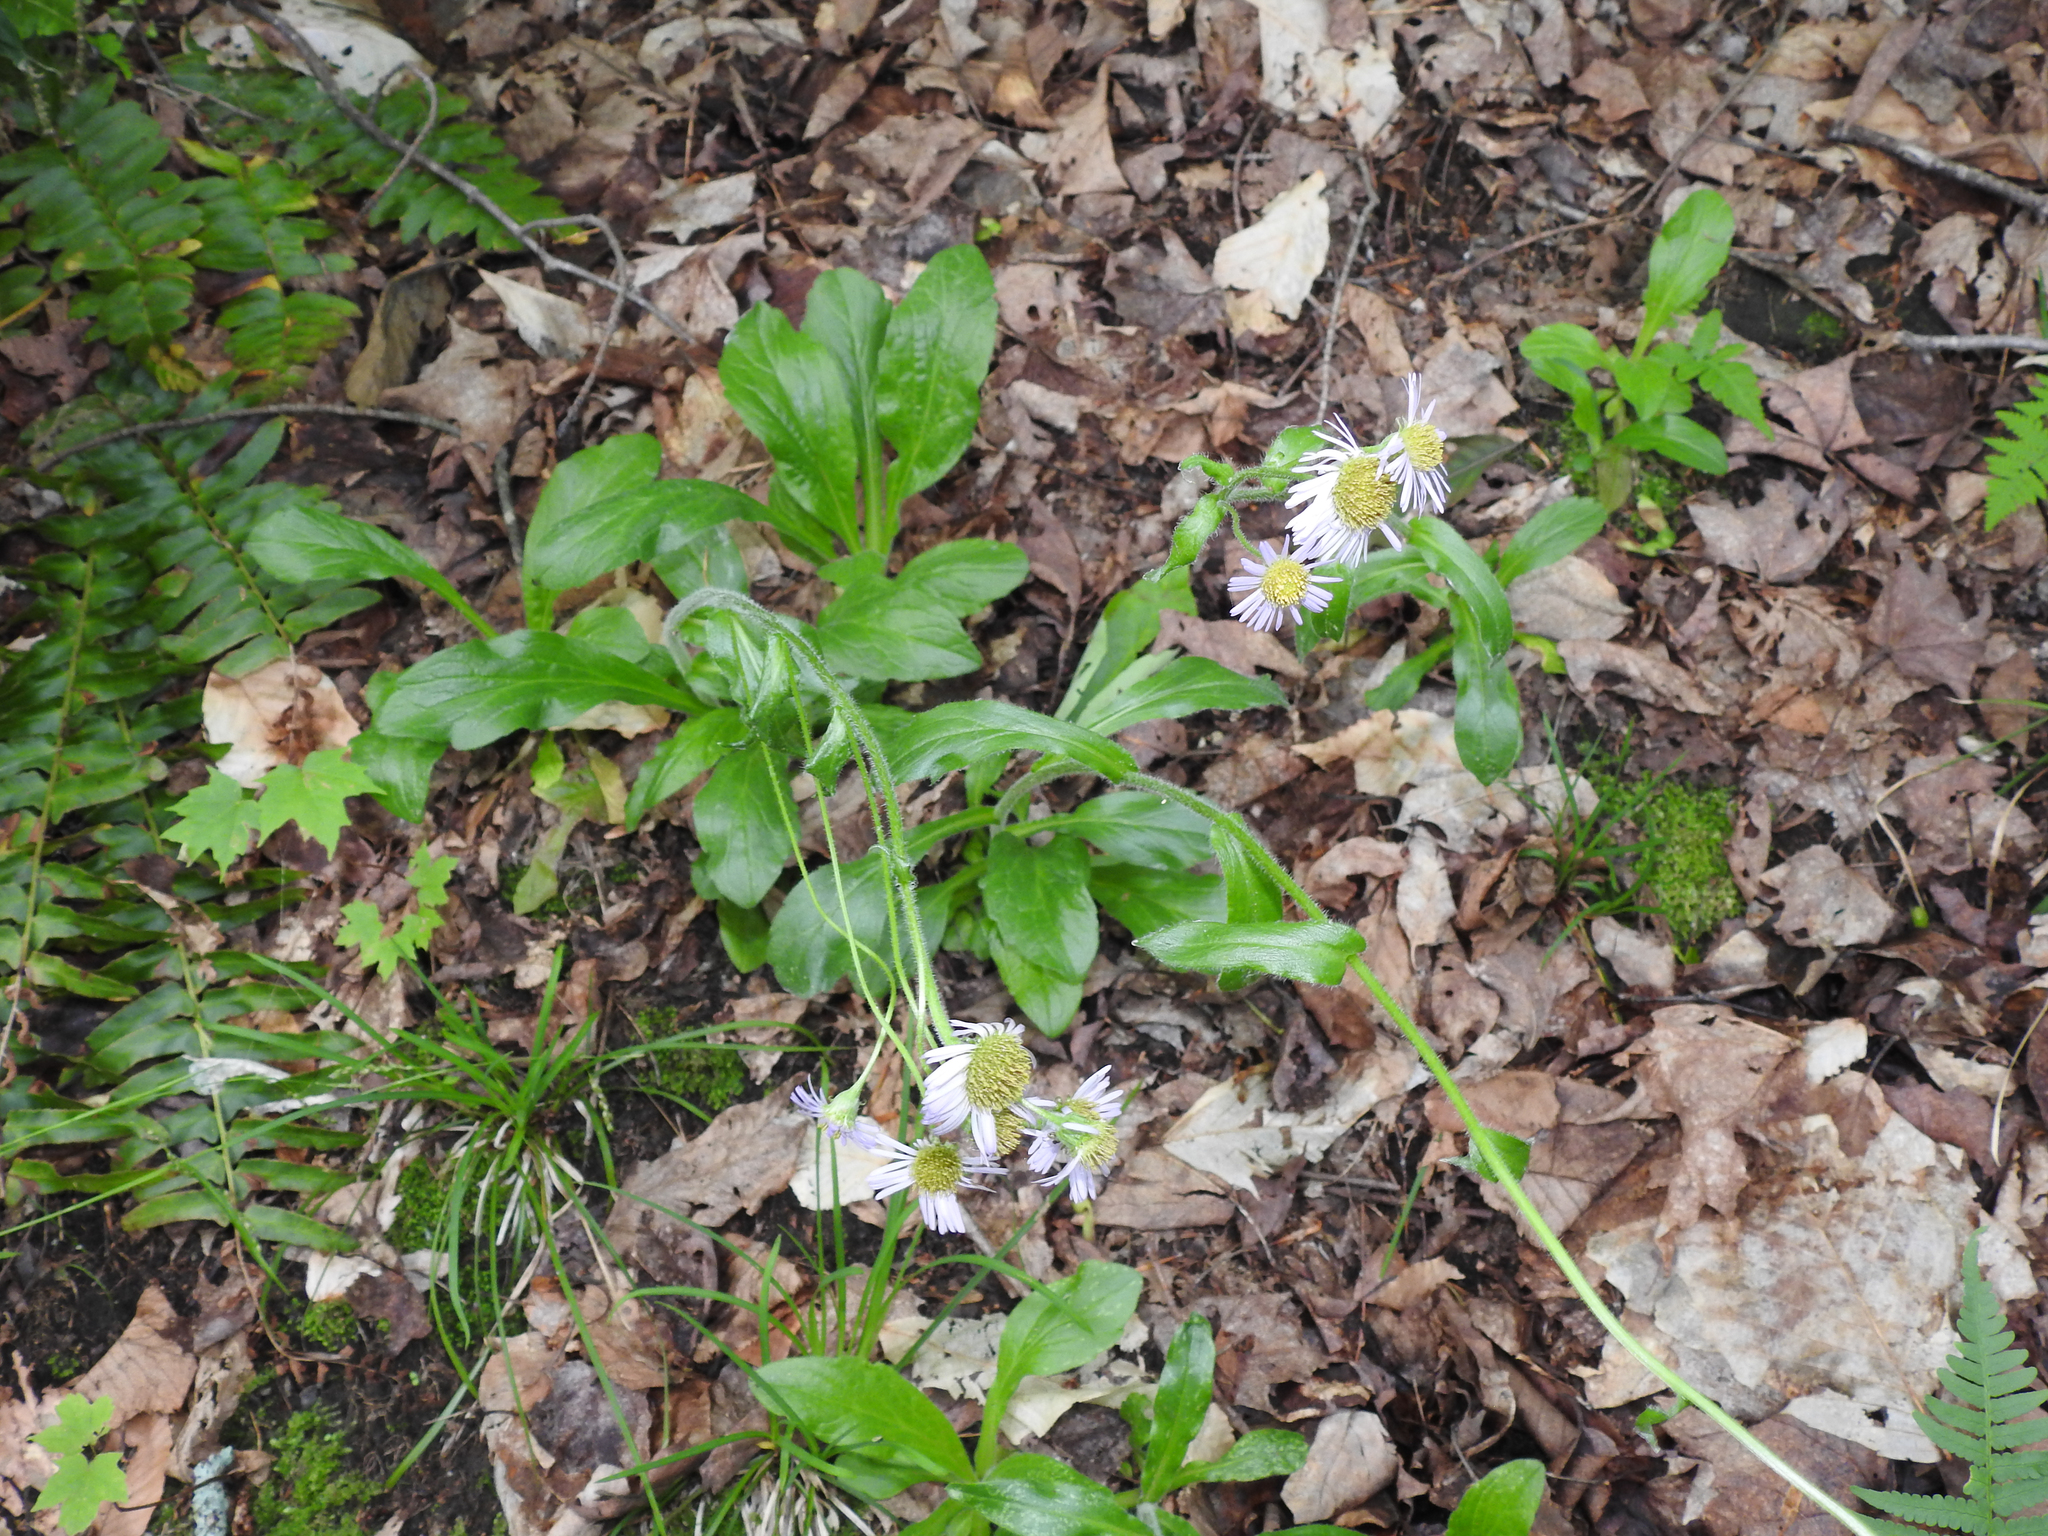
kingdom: Plantae
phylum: Tracheophyta
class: Magnoliopsida
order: Asterales
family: Asteraceae
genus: Erigeron
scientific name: Erigeron pulchellus
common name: Hairy fleabane
